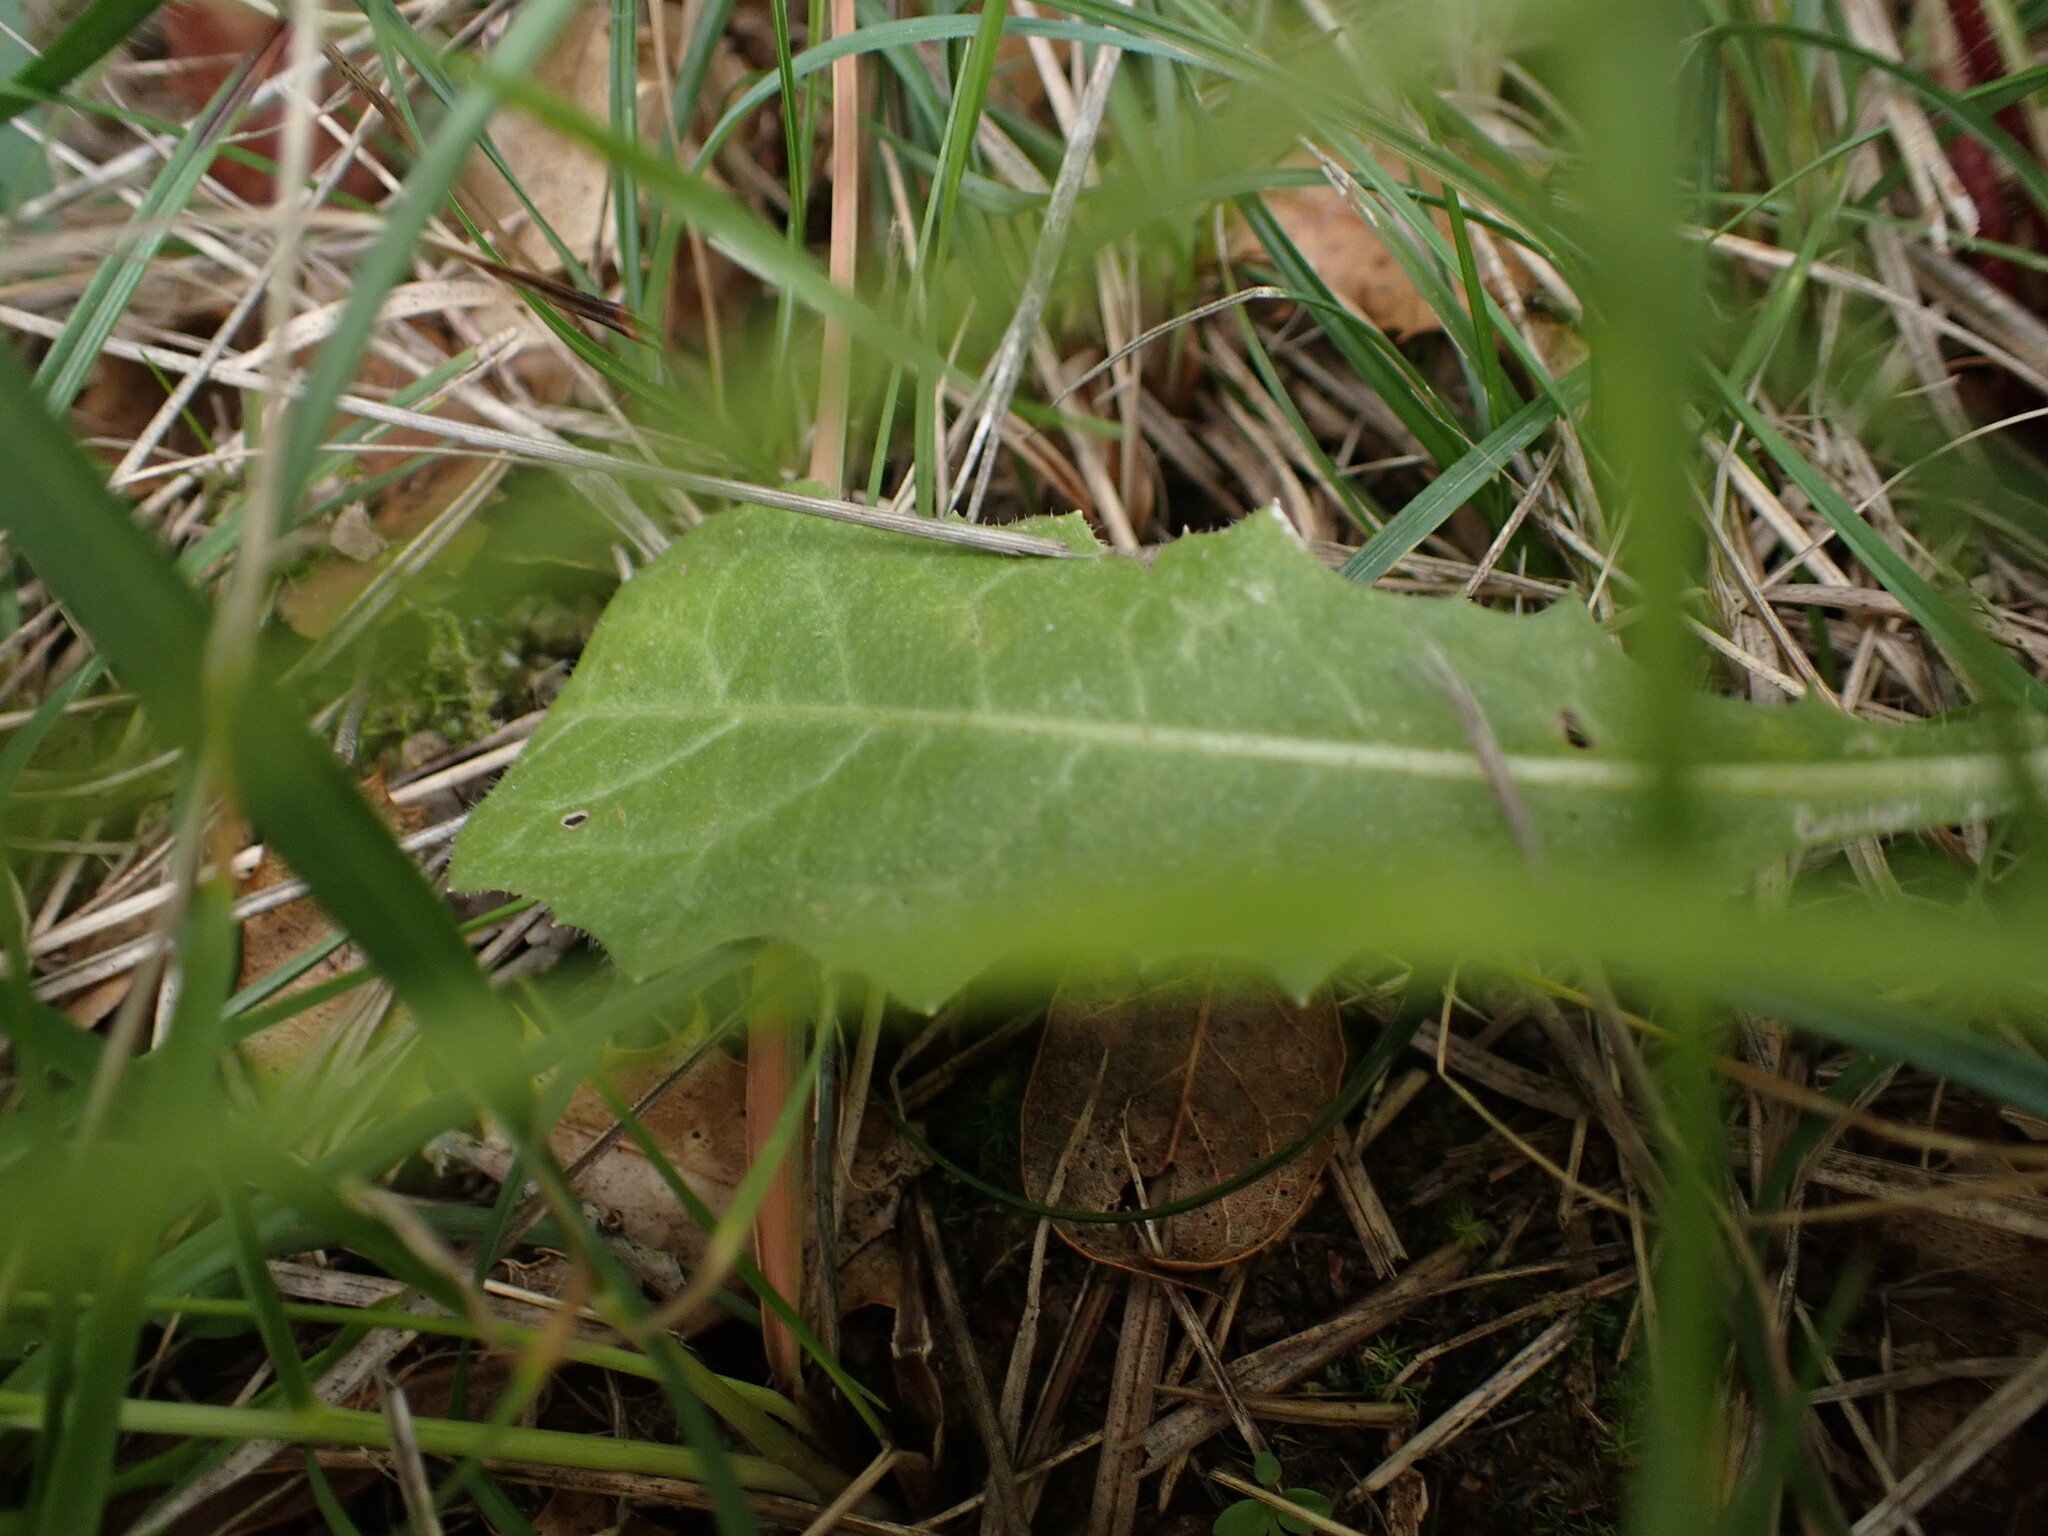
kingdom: Plantae
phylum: Tracheophyta
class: Magnoliopsida
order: Asterales
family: Asteraceae
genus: Crepis
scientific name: Crepis vesicaria
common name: Beaked hawksbeard
